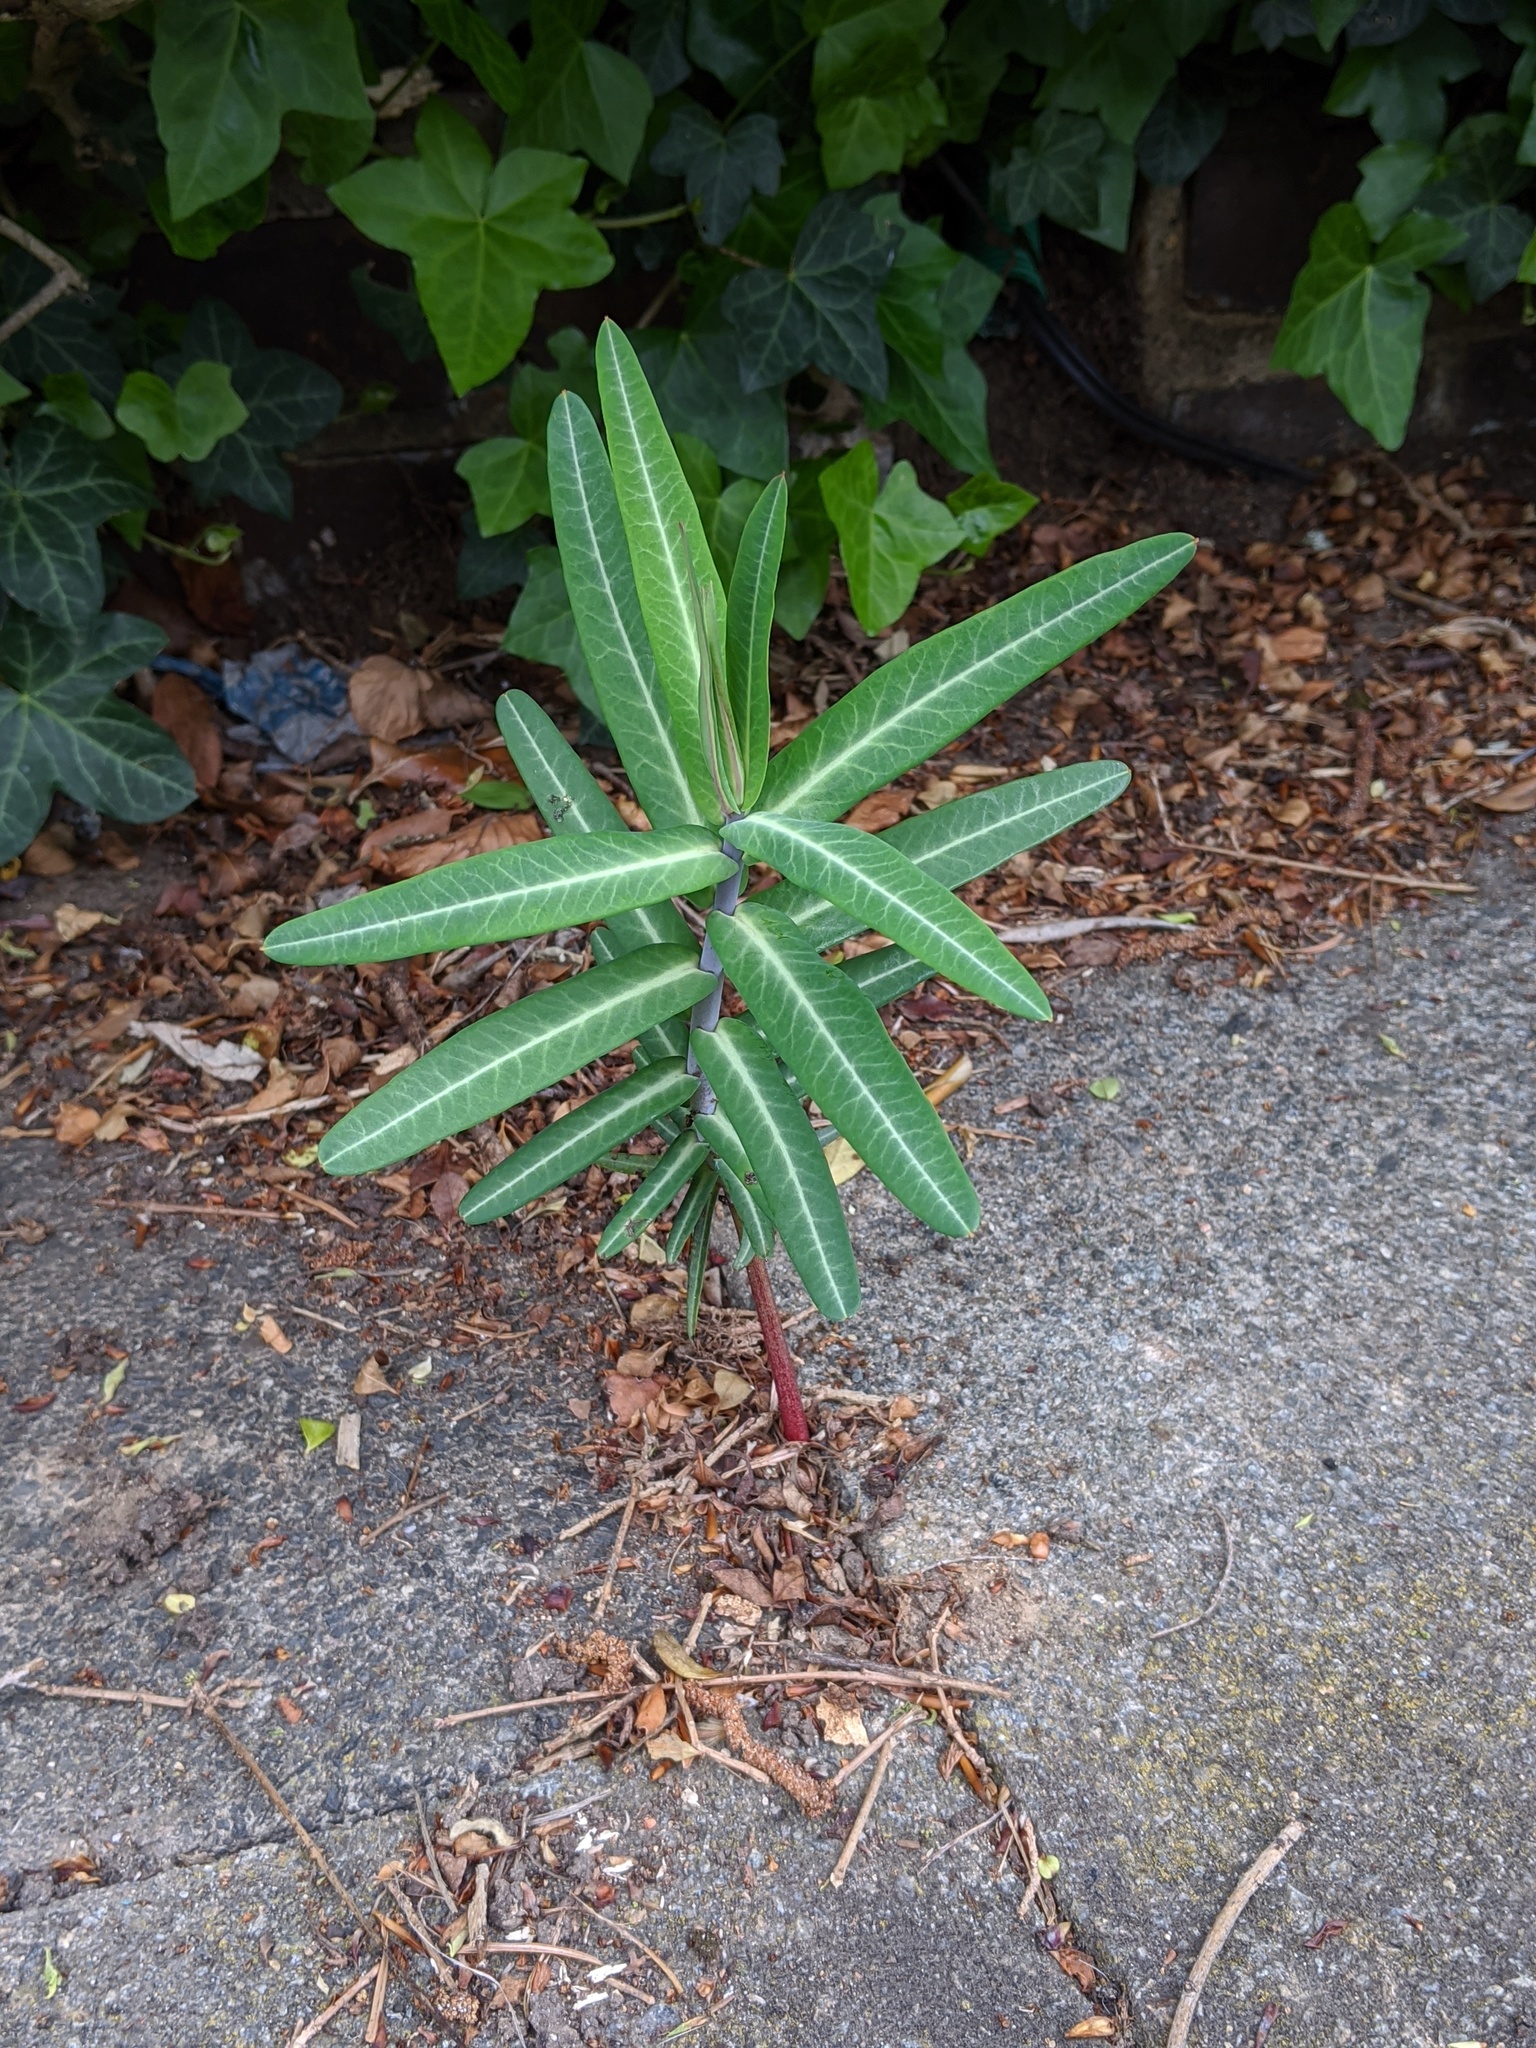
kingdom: Plantae
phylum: Tracheophyta
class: Magnoliopsida
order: Malpighiales
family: Euphorbiaceae
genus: Euphorbia
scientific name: Euphorbia lathyris
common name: Caper spurge
